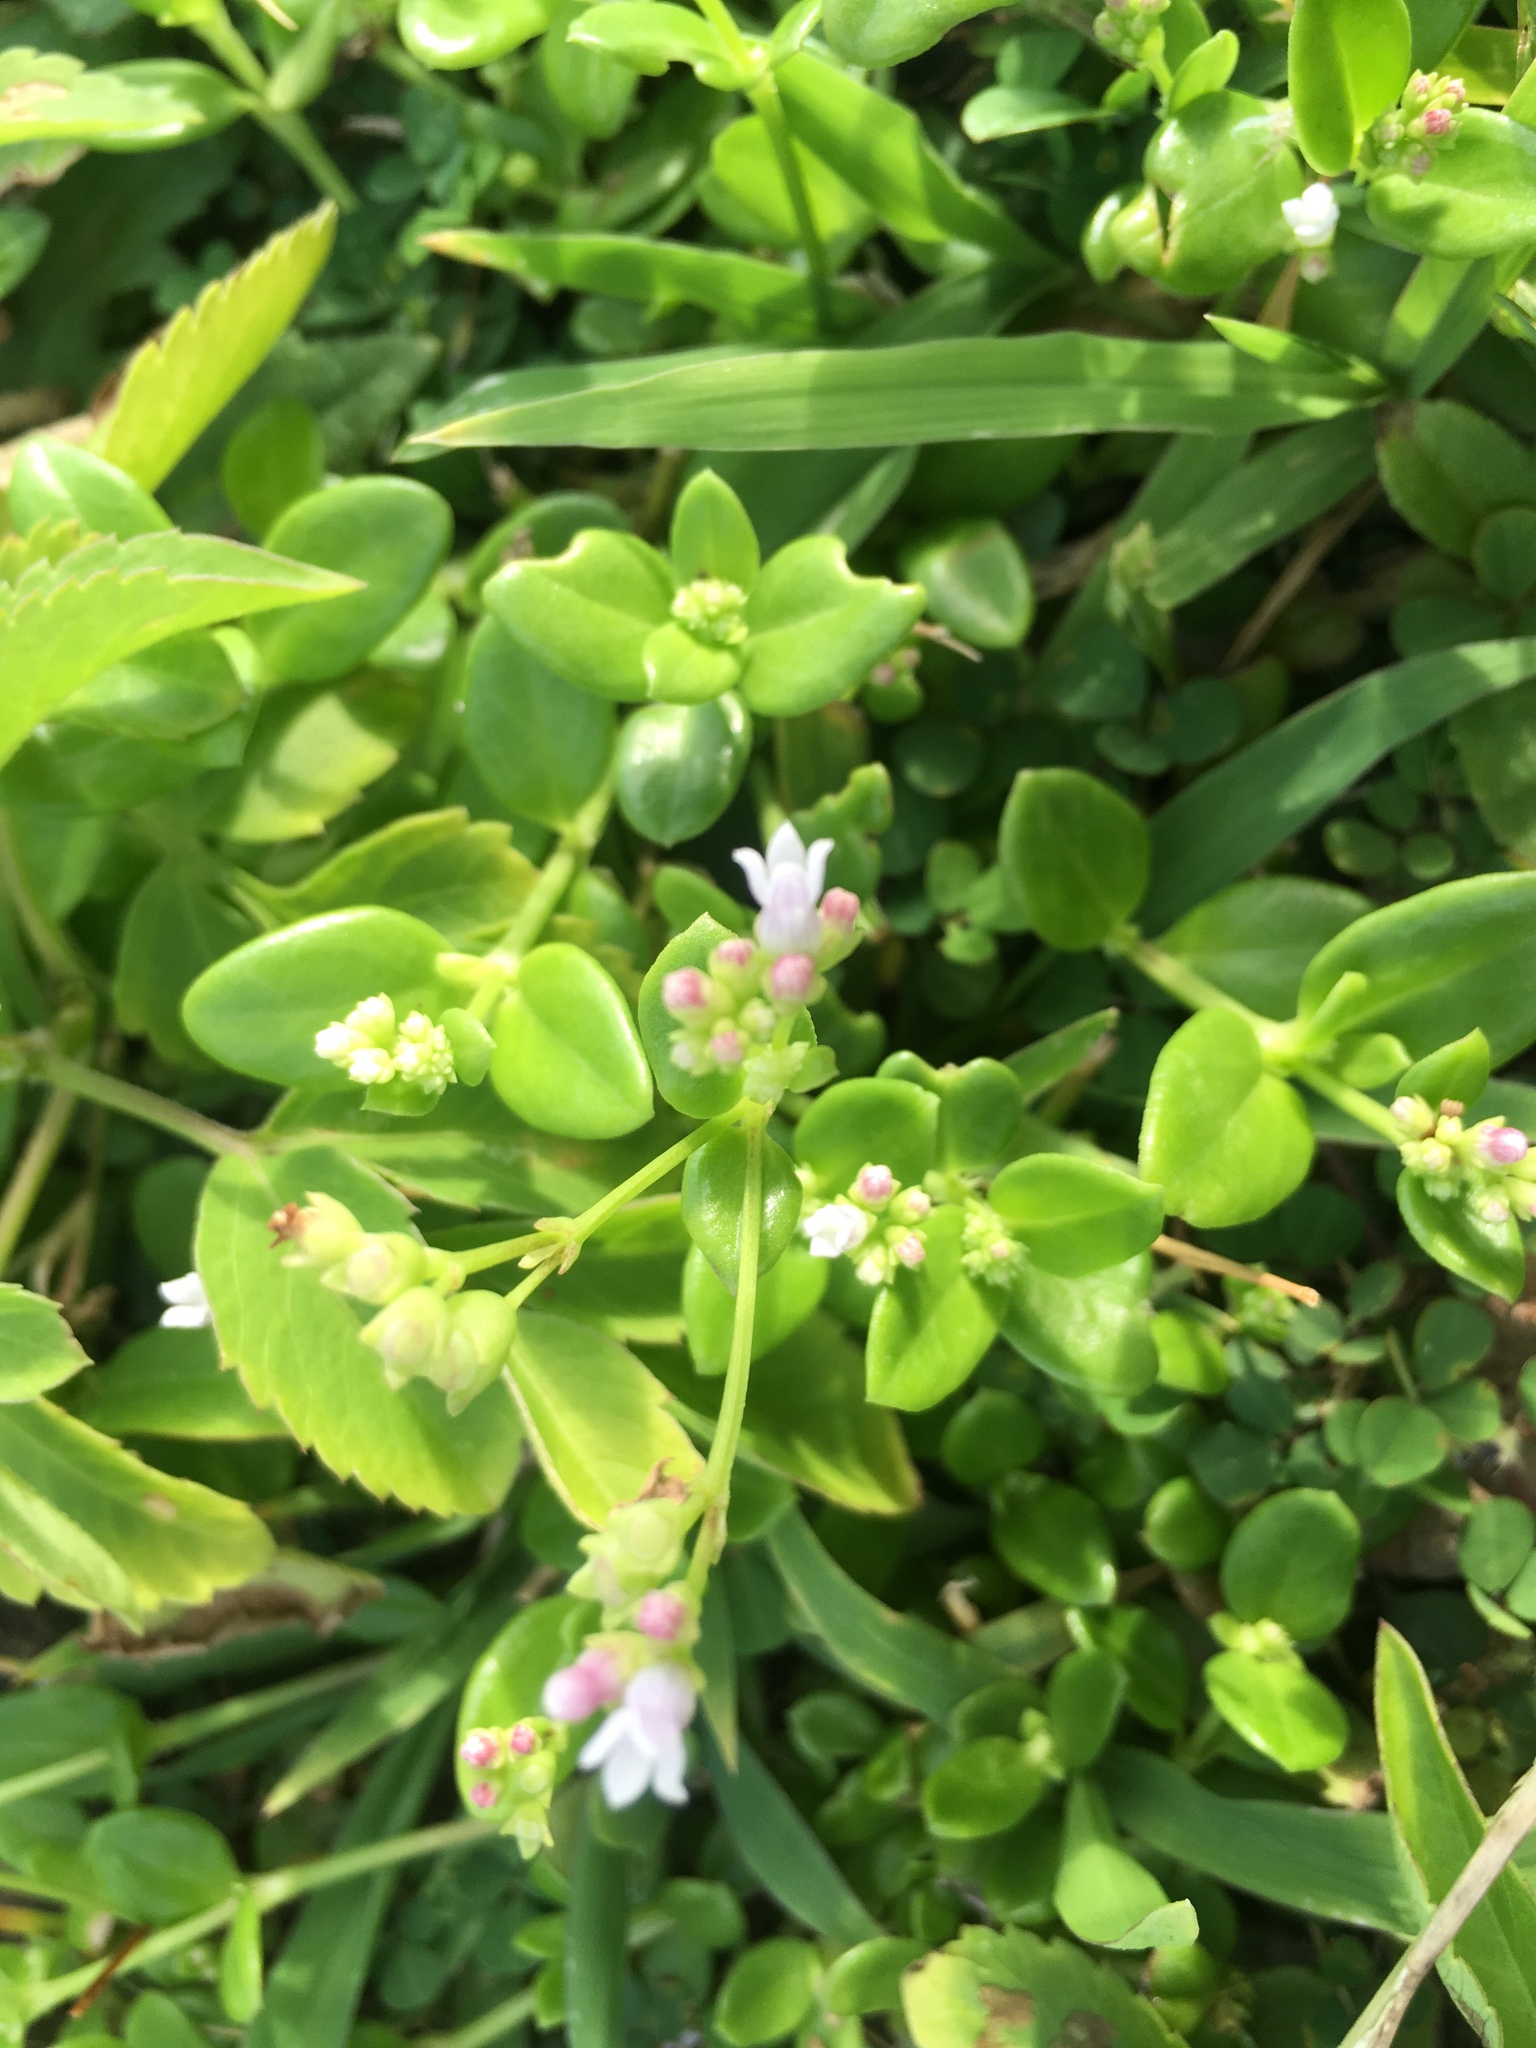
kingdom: Plantae
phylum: Tracheophyta
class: Magnoliopsida
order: Gentianales
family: Rubiaceae
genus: Leptopetalum
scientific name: Leptopetalum racemosum
